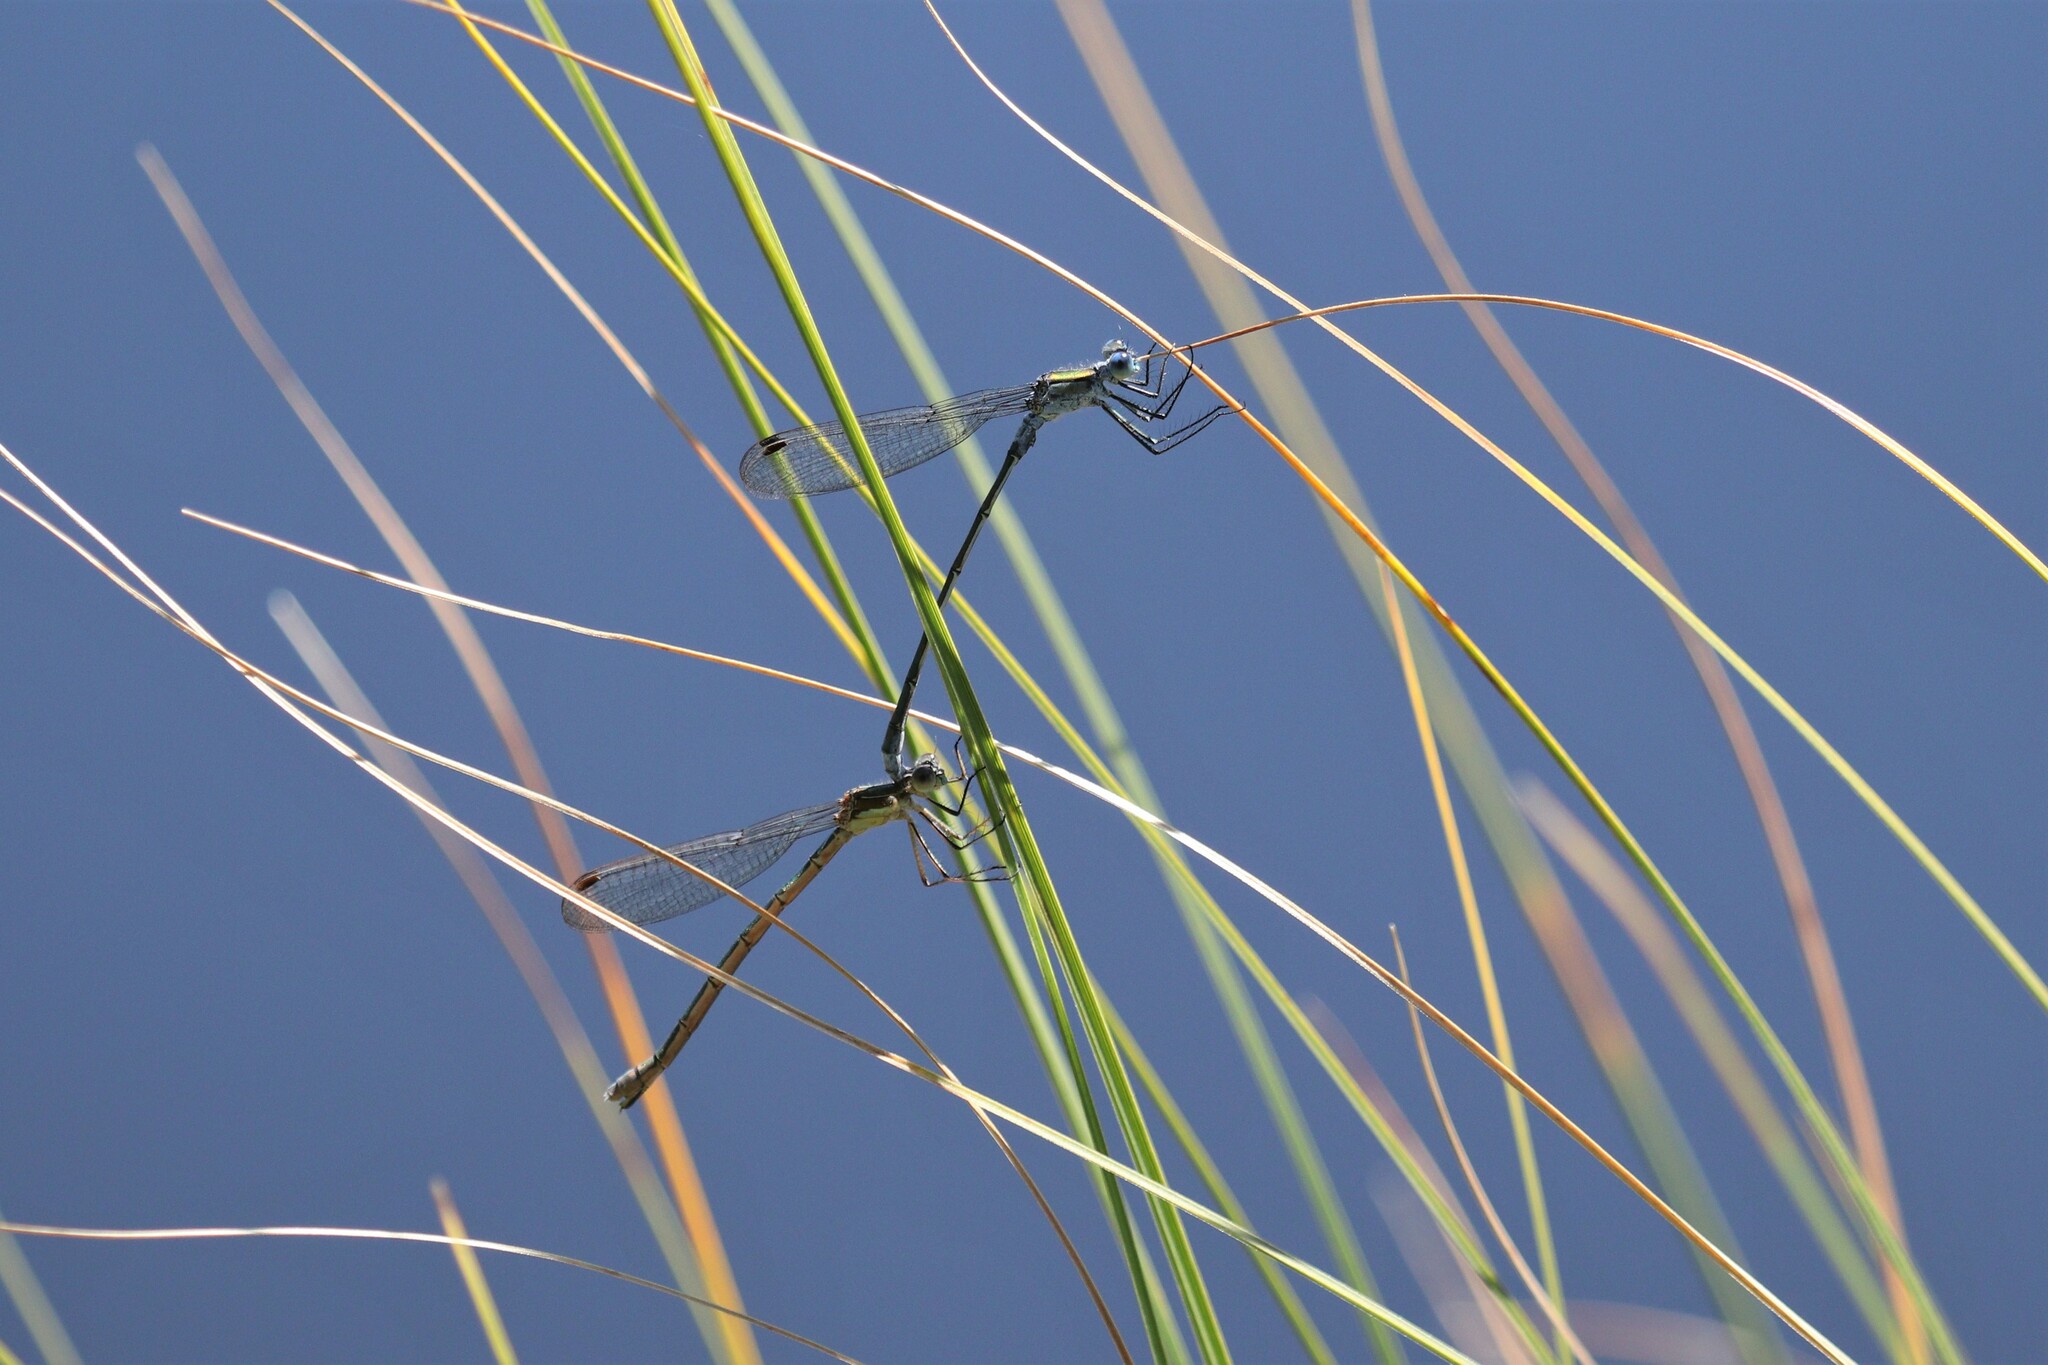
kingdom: Animalia
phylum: Arthropoda
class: Insecta
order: Odonata
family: Lestidae
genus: Lestes
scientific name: Lestes sponsa
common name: Common spreadwing
